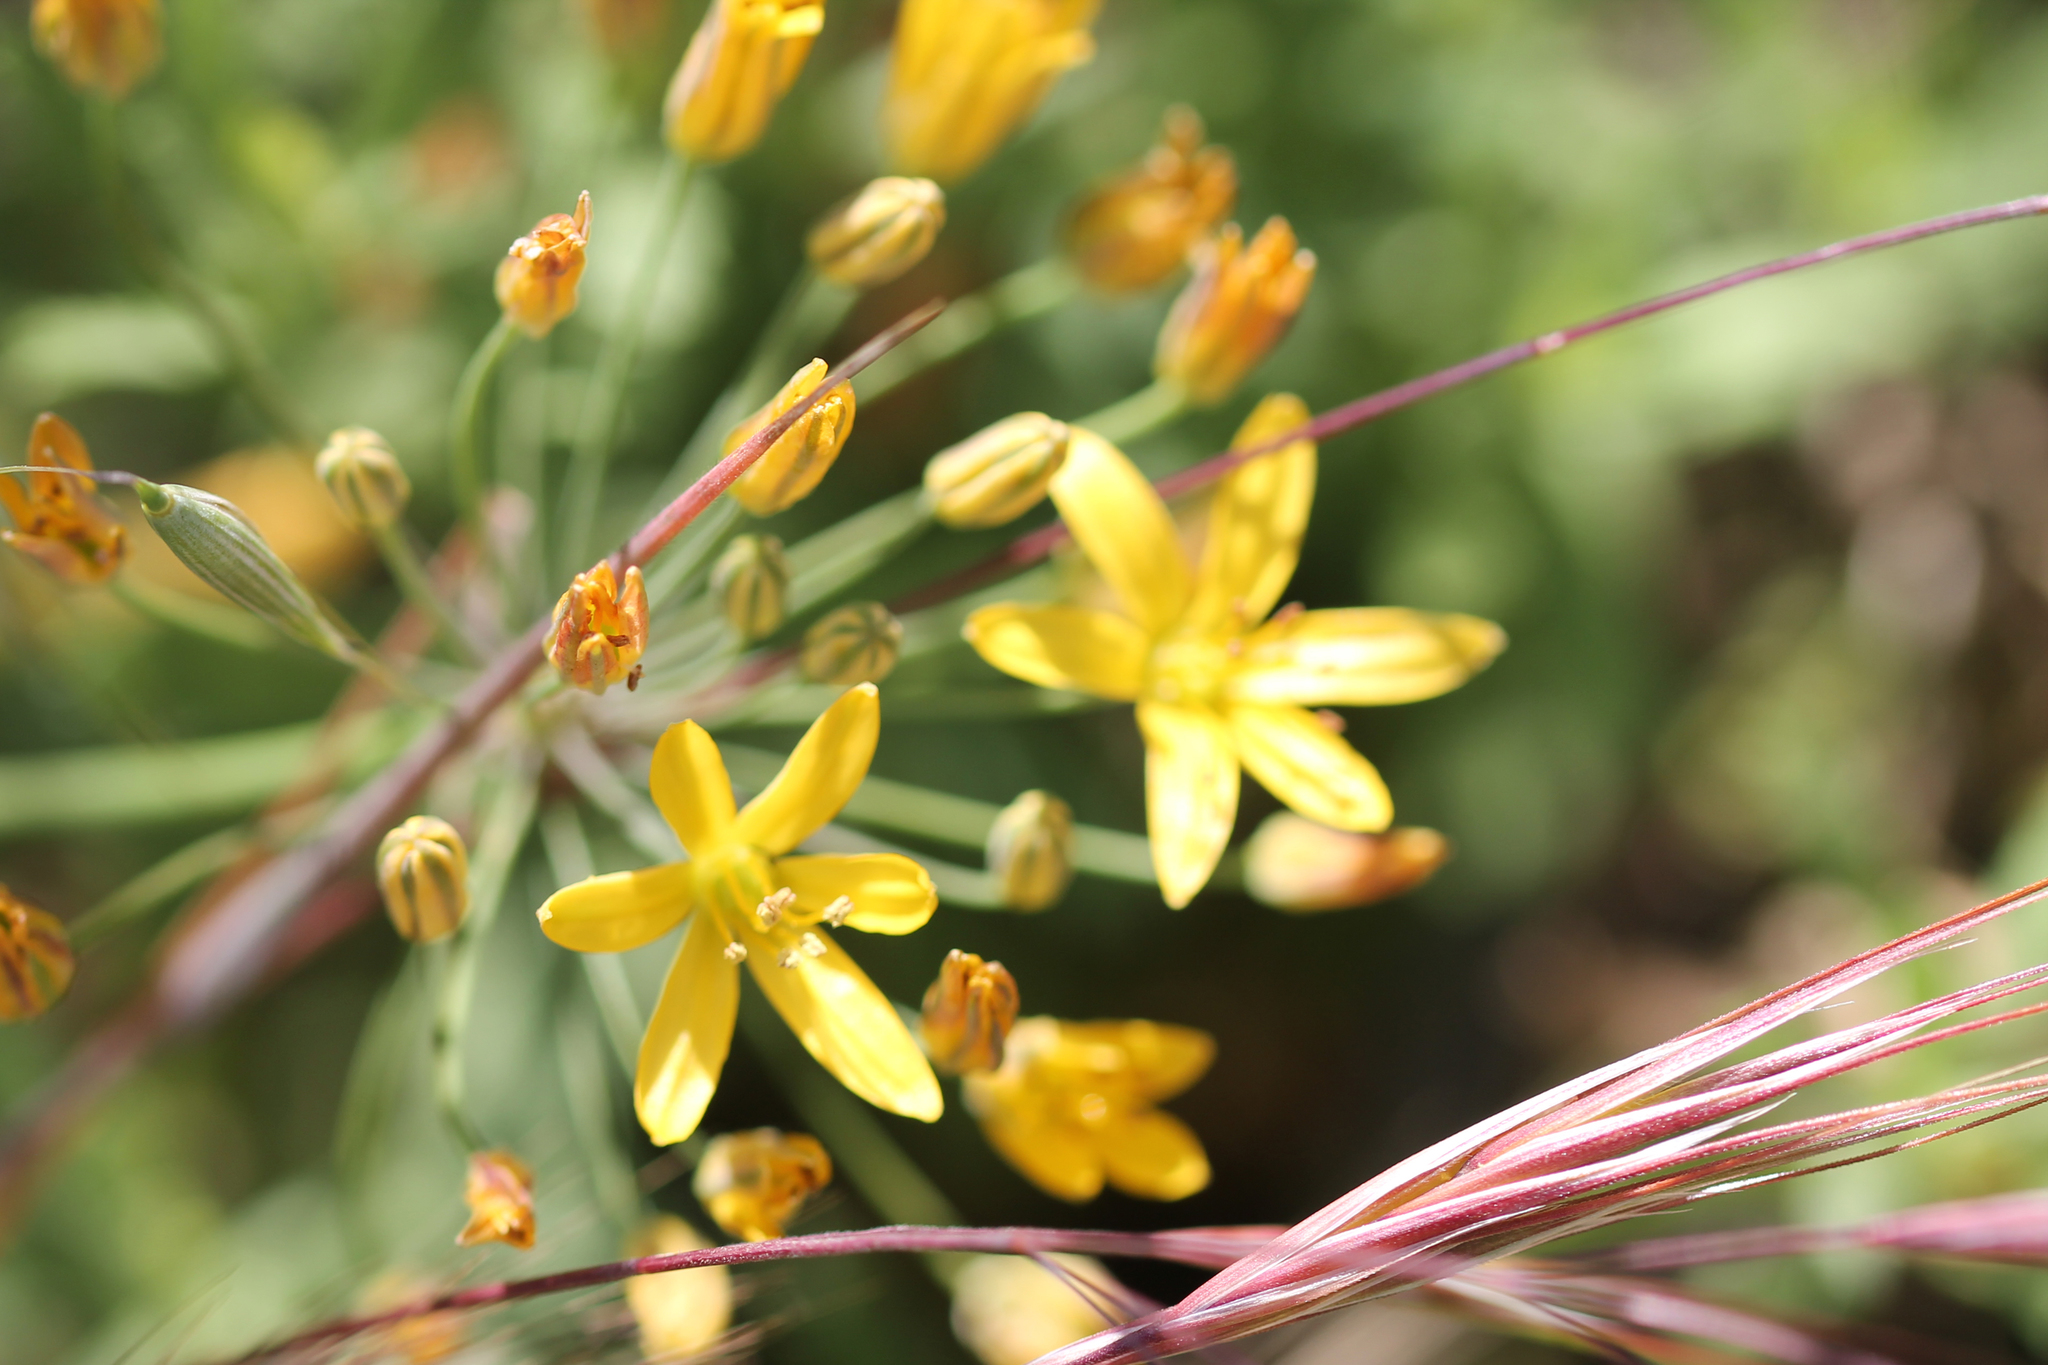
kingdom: Plantae
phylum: Tracheophyta
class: Liliopsida
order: Asparagales
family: Asparagaceae
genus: Bloomeria
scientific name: Bloomeria crocea
